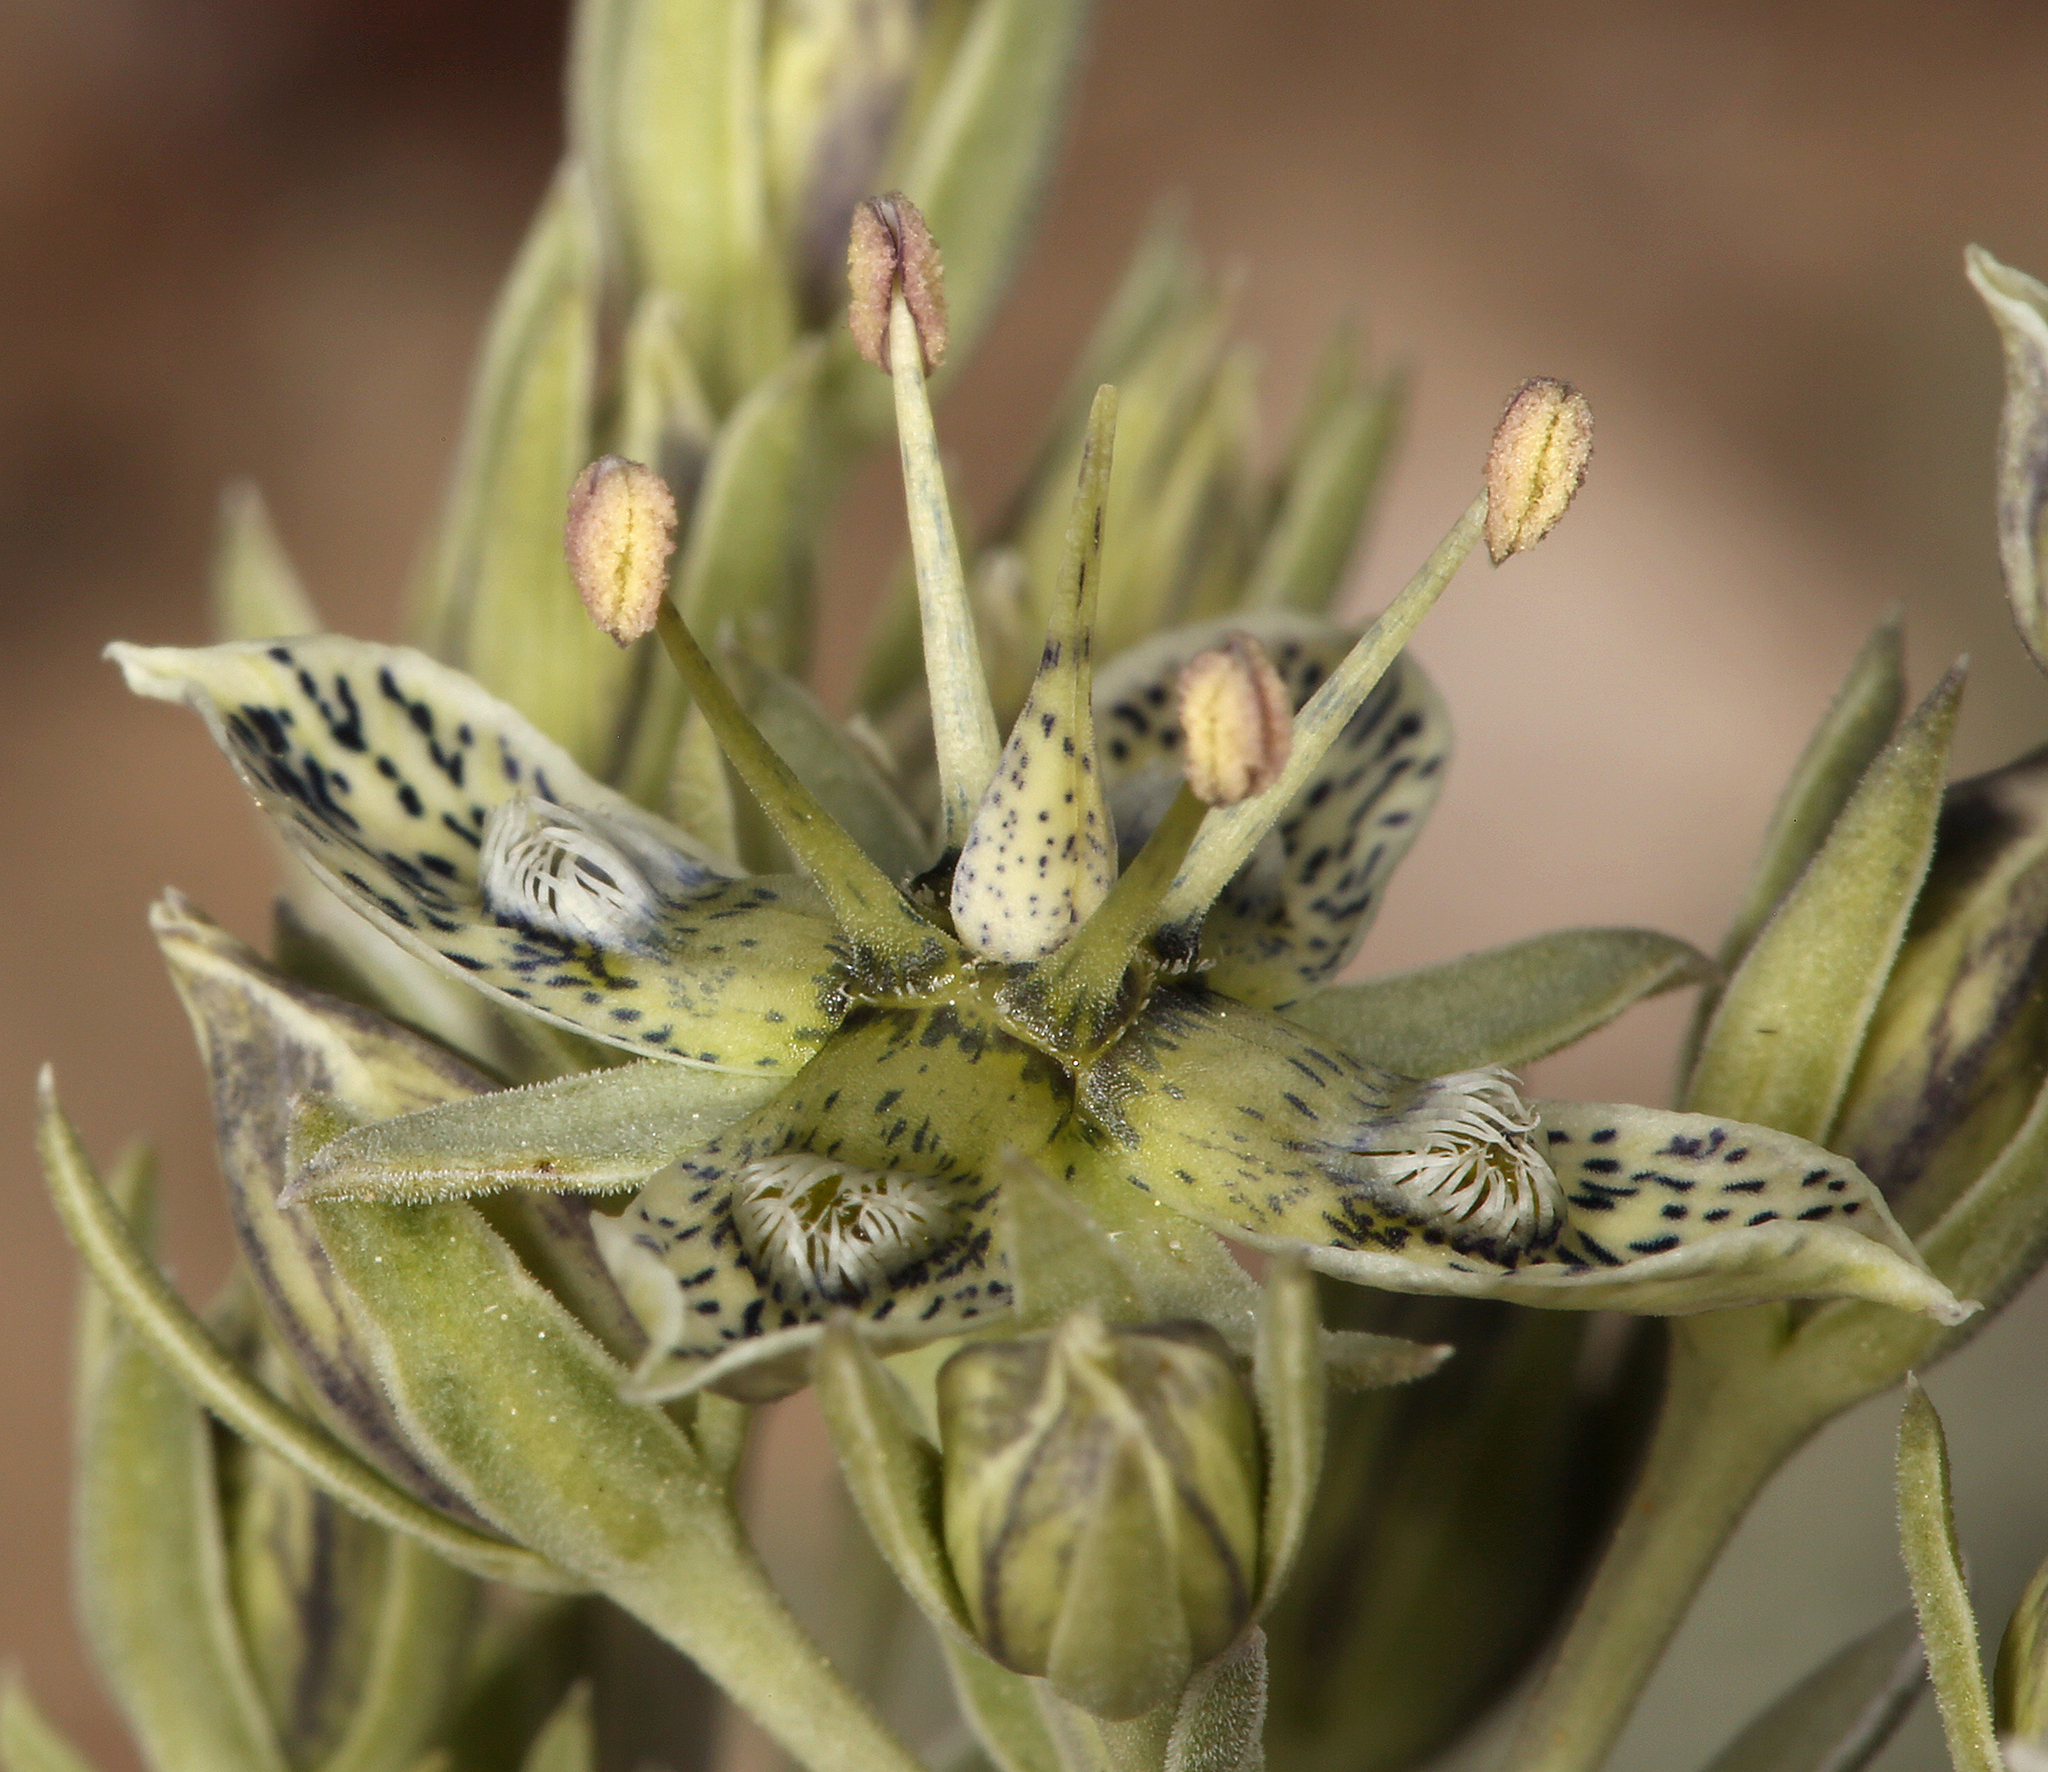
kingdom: Plantae
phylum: Tracheophyta
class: Magnoliopsida
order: Gentianales
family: Gentianaceae
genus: Frasera
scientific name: Frasera puberulenta
